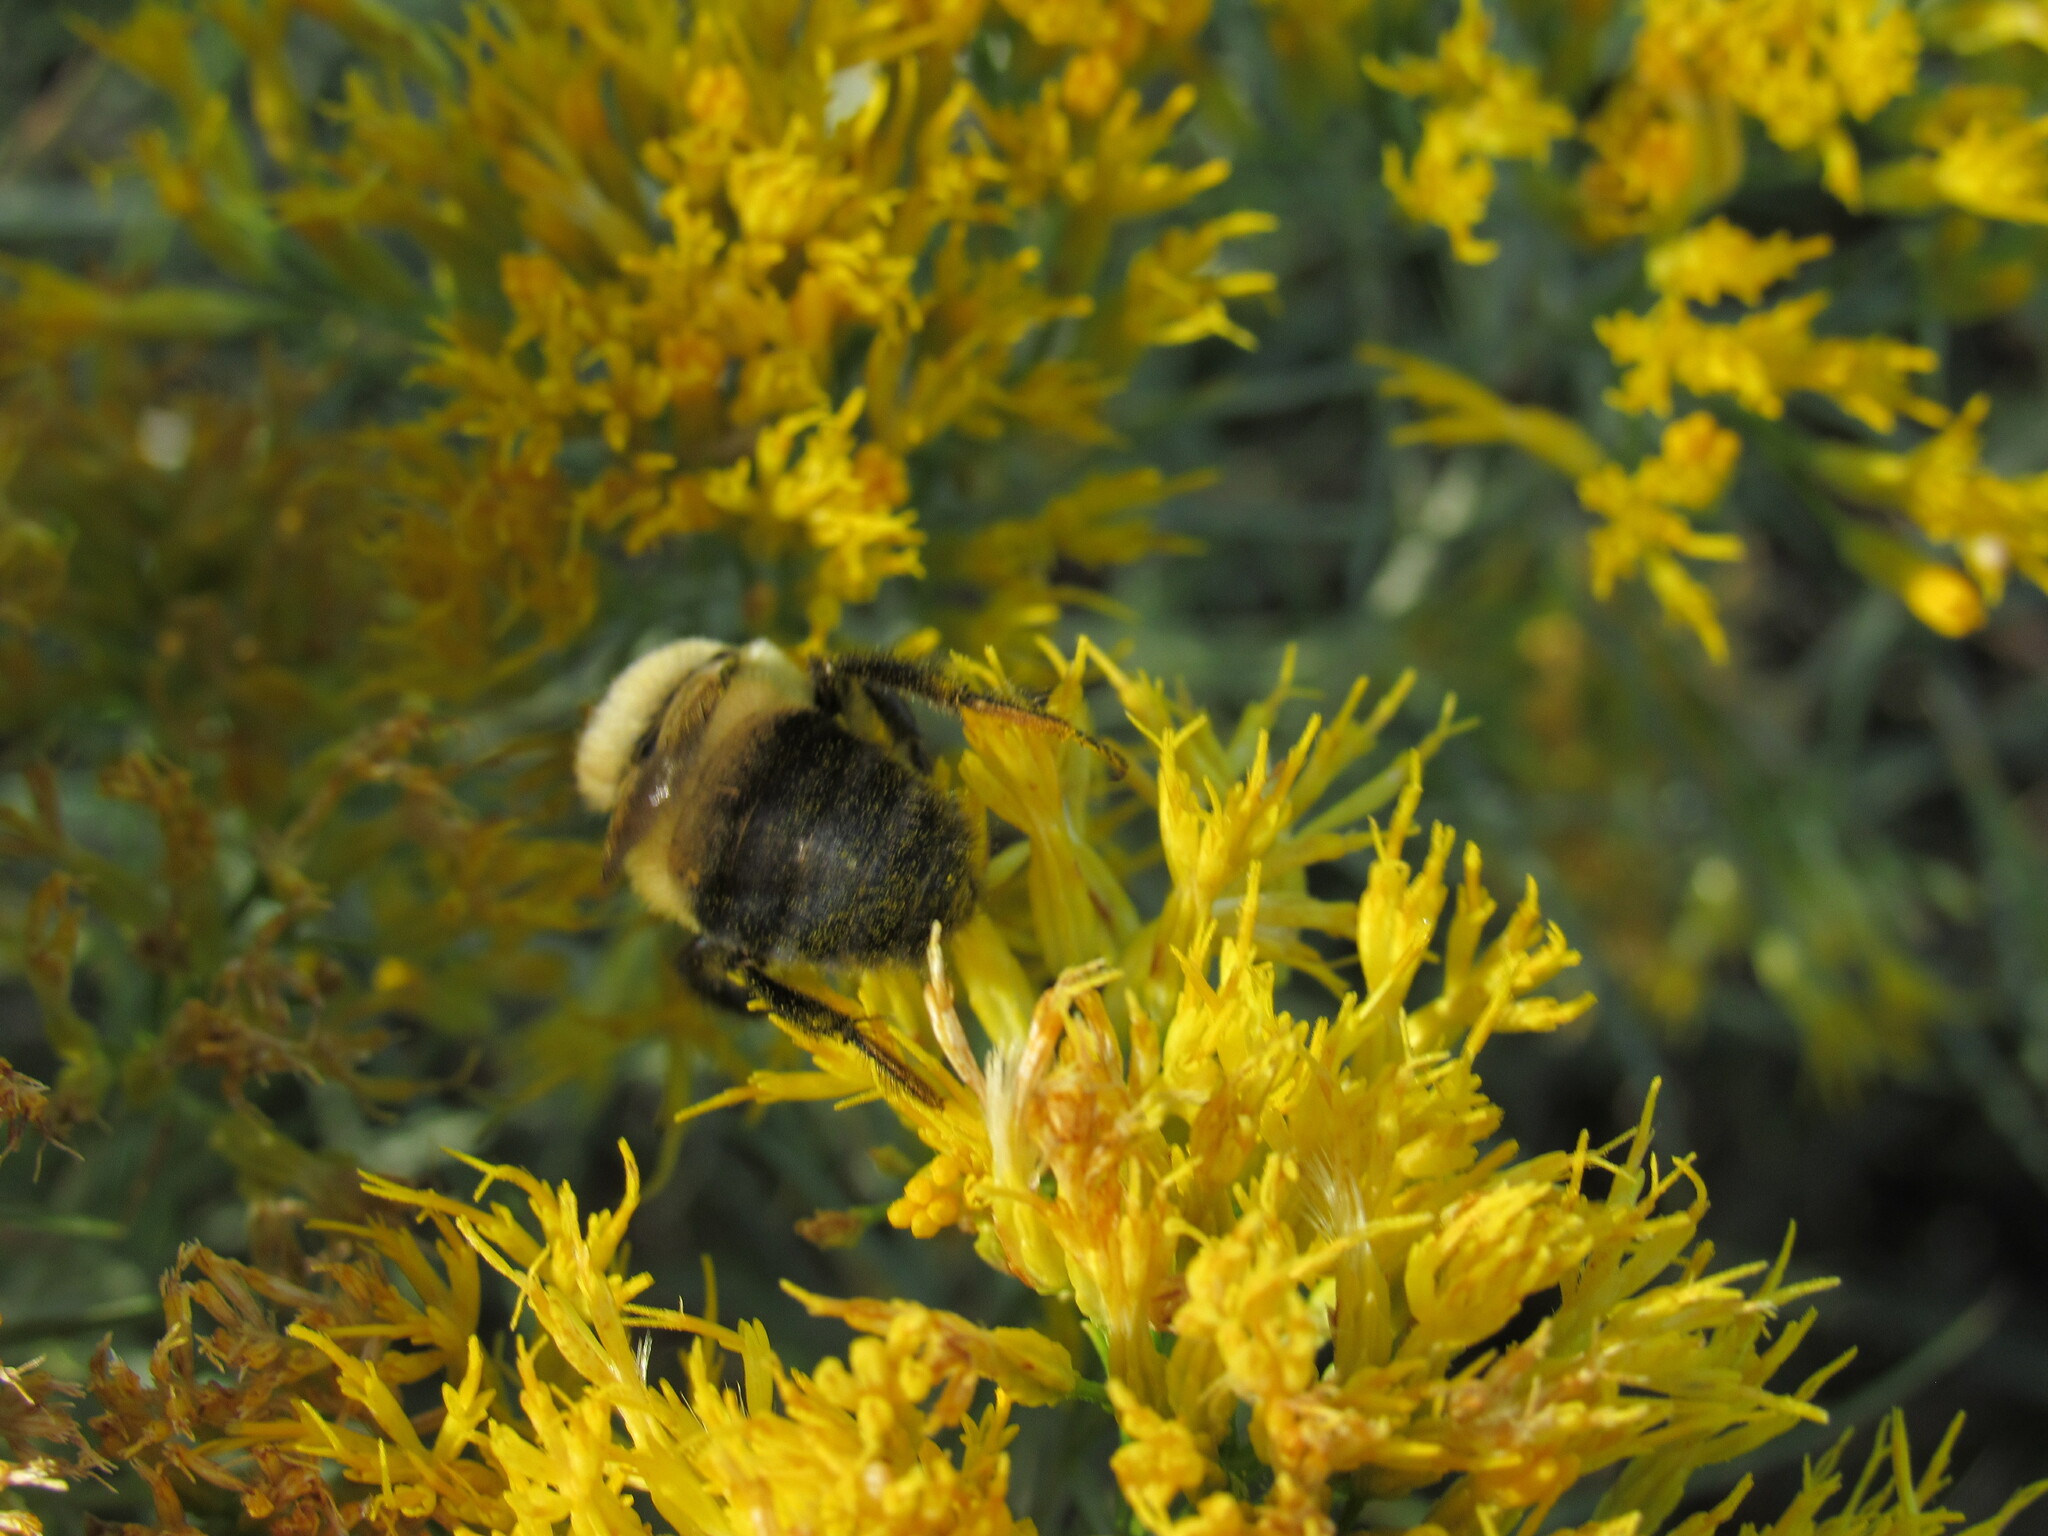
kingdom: Animalia
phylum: Arthropoda
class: Insecta
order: Hymenoptera
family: Apidae
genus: Bombus
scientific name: Bombus griseocollis
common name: Brown-belted bumble bee
